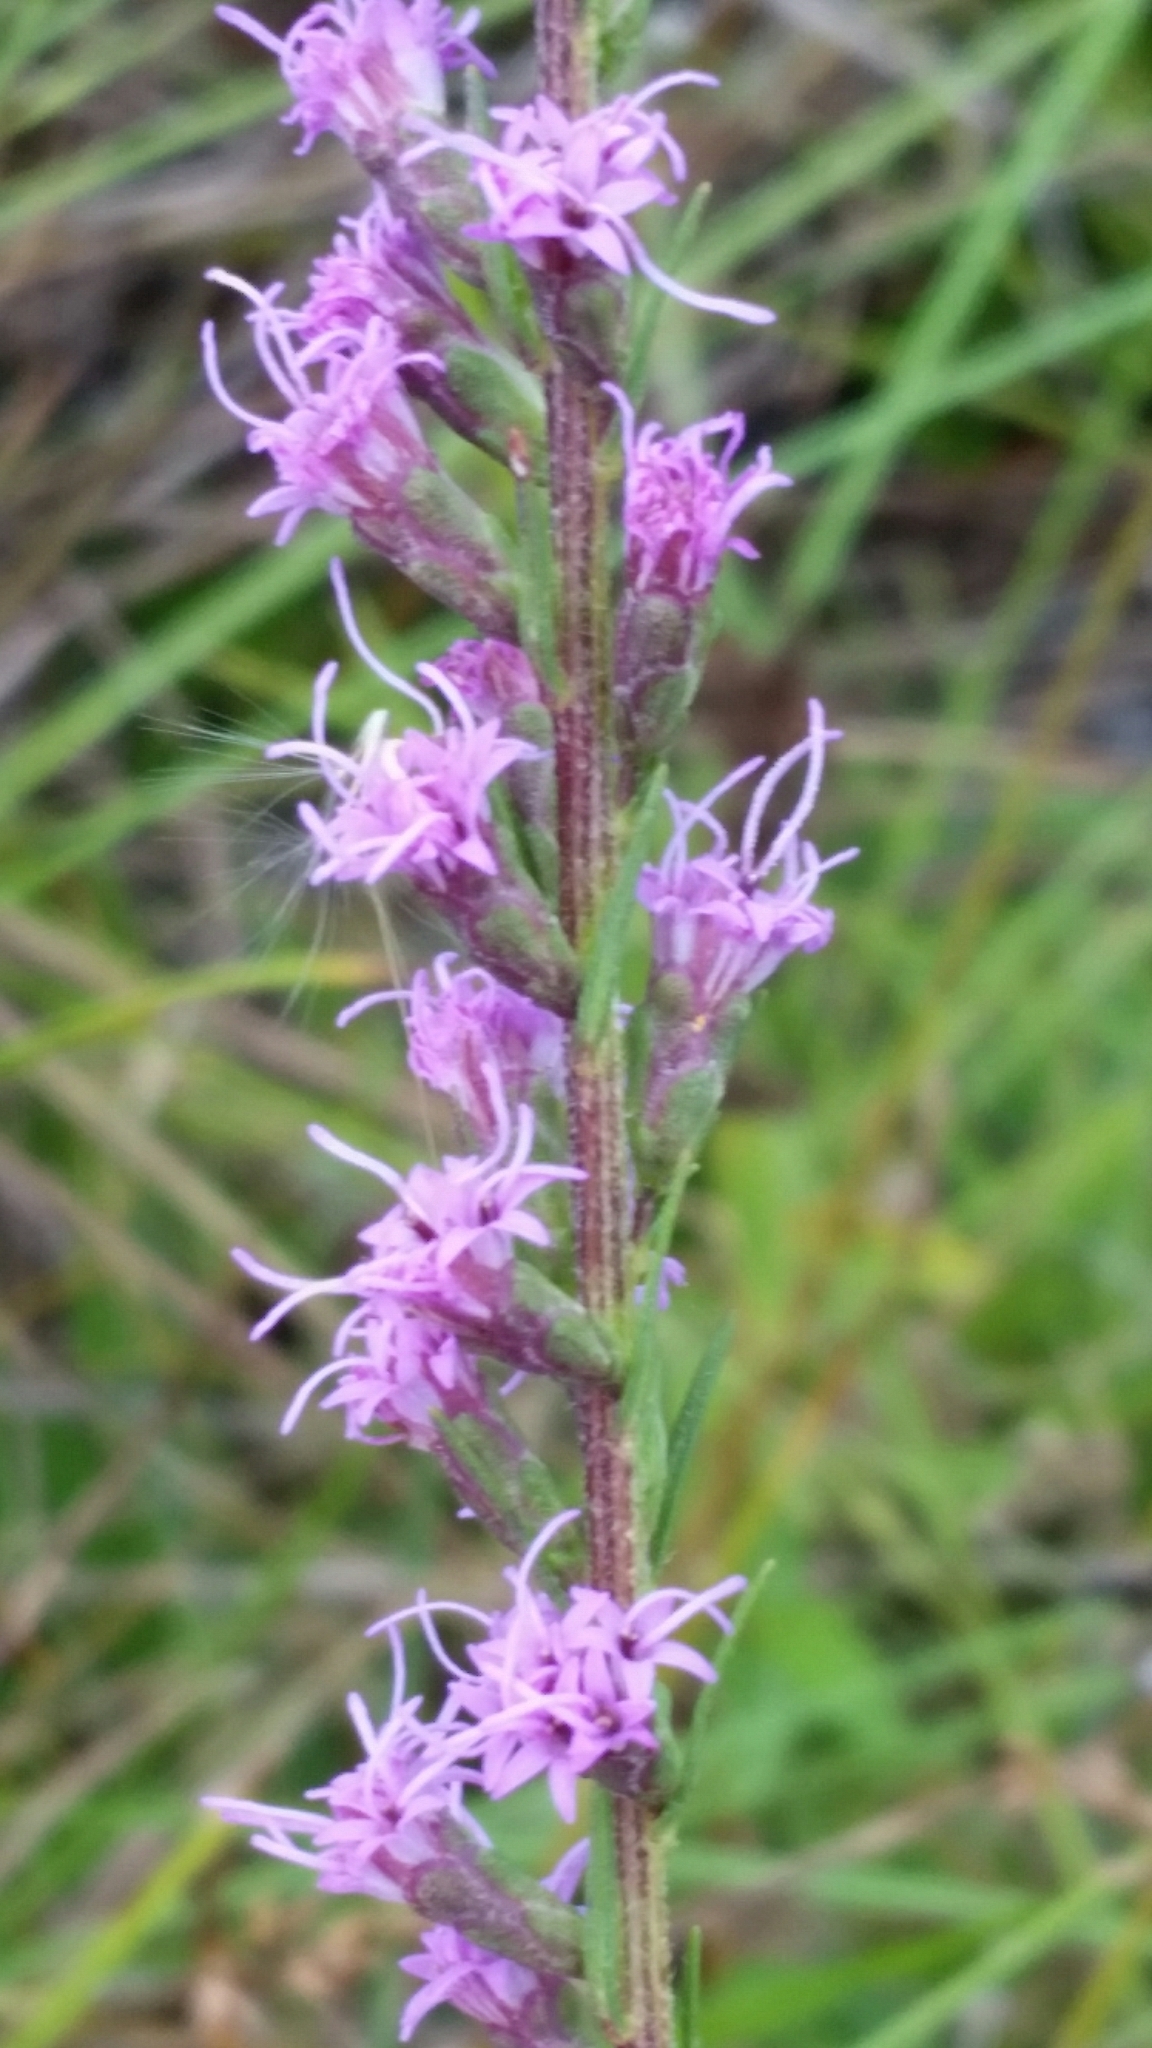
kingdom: Plantae
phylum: Tracheophyta
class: Magnoliopsida
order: Asterales
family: Asteraceae
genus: Liatris
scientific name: Liatris gracilis
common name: Slender gayfeather
